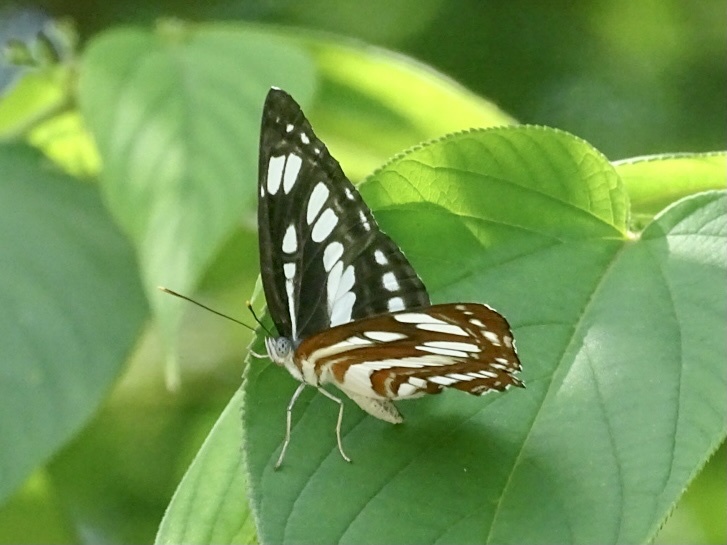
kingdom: Animalia
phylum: Arthropoda
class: Insecta
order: Lepidoptera
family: Nymphalidae
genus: Neptis
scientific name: Neptis hylas
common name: Common sailer
